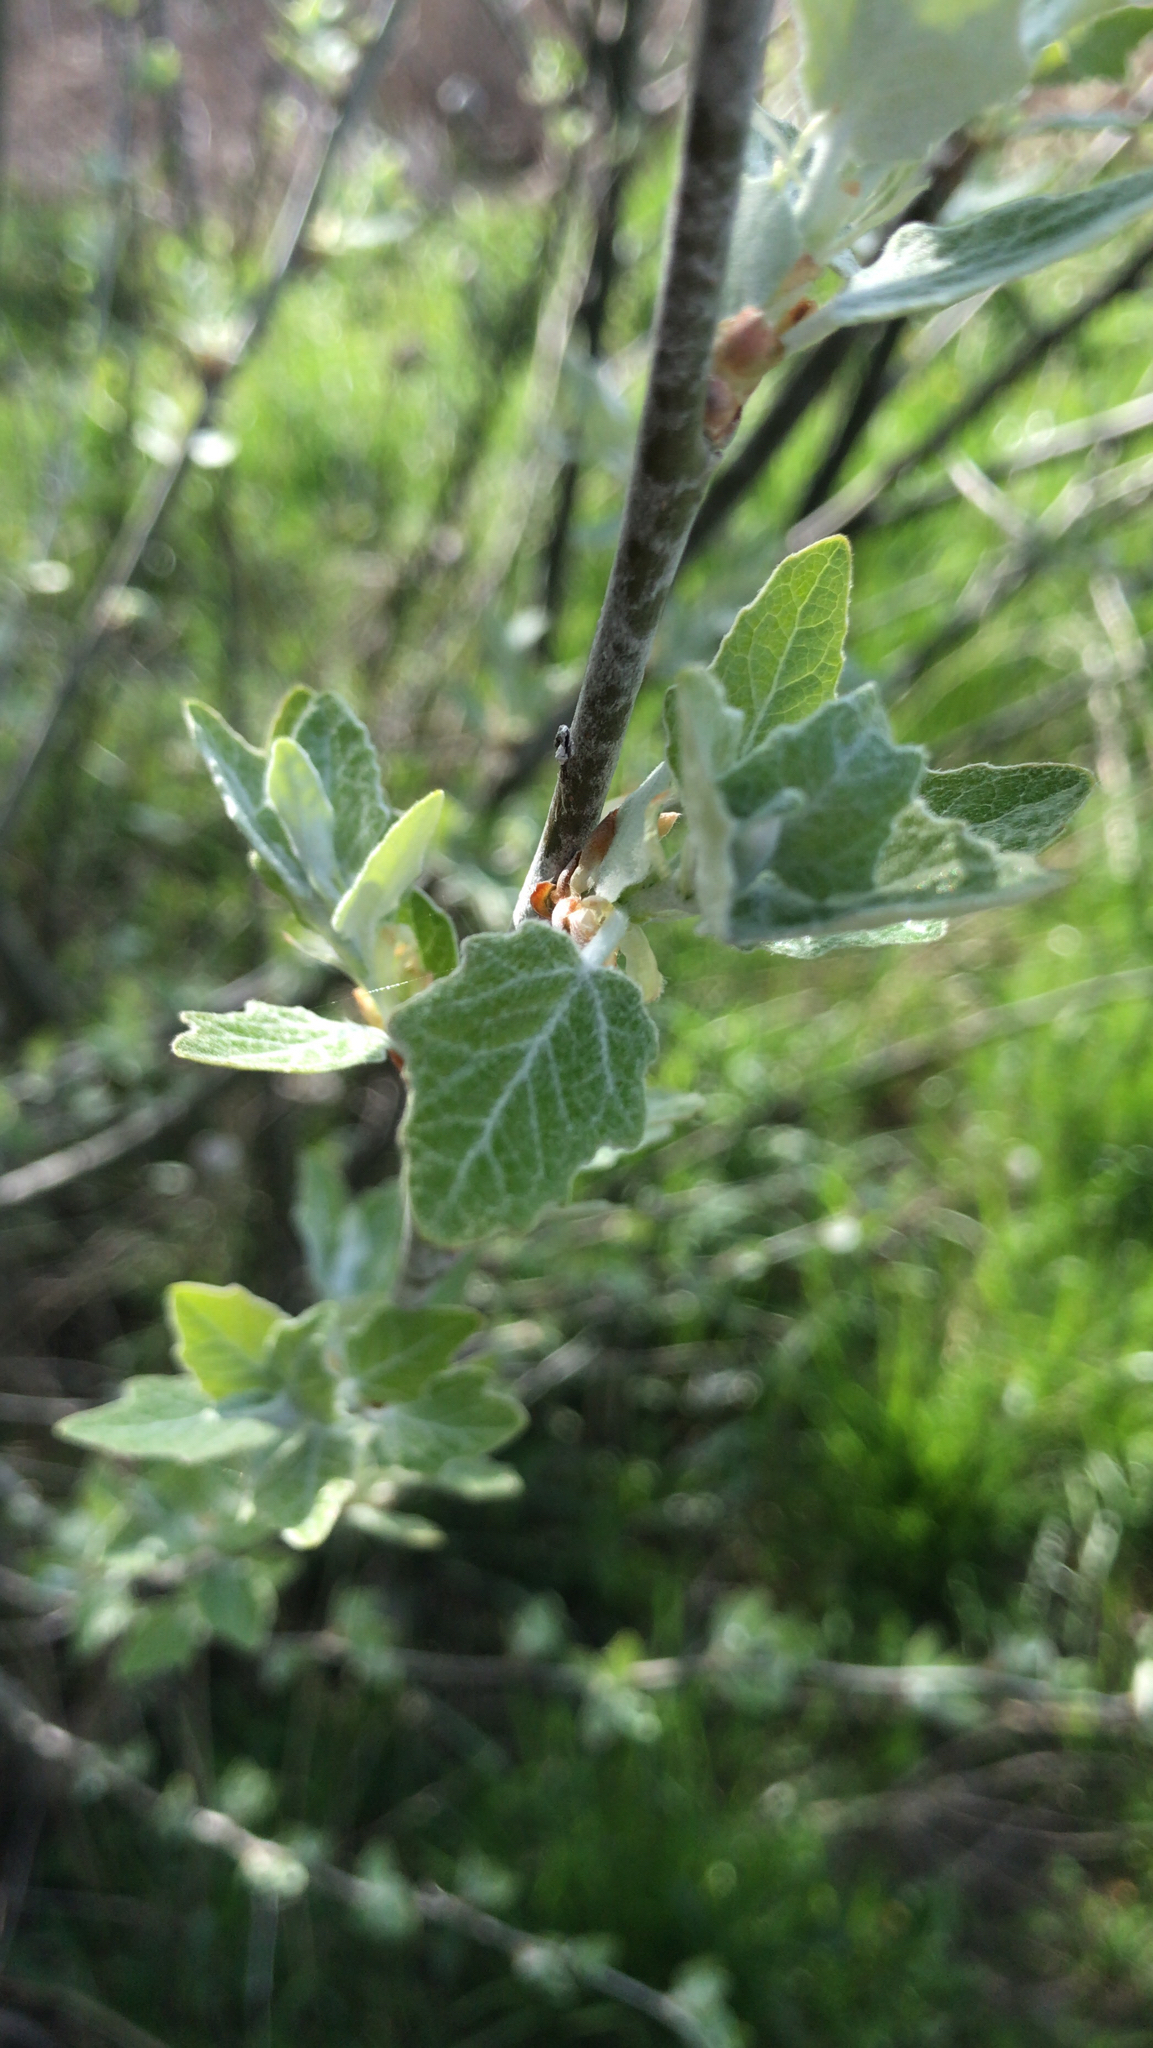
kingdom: Plantae
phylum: Tracheophyta
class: Magnoliopsida
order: Malpighiales
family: Salicaceae
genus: Populus
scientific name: Populus alba
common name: White poplar
